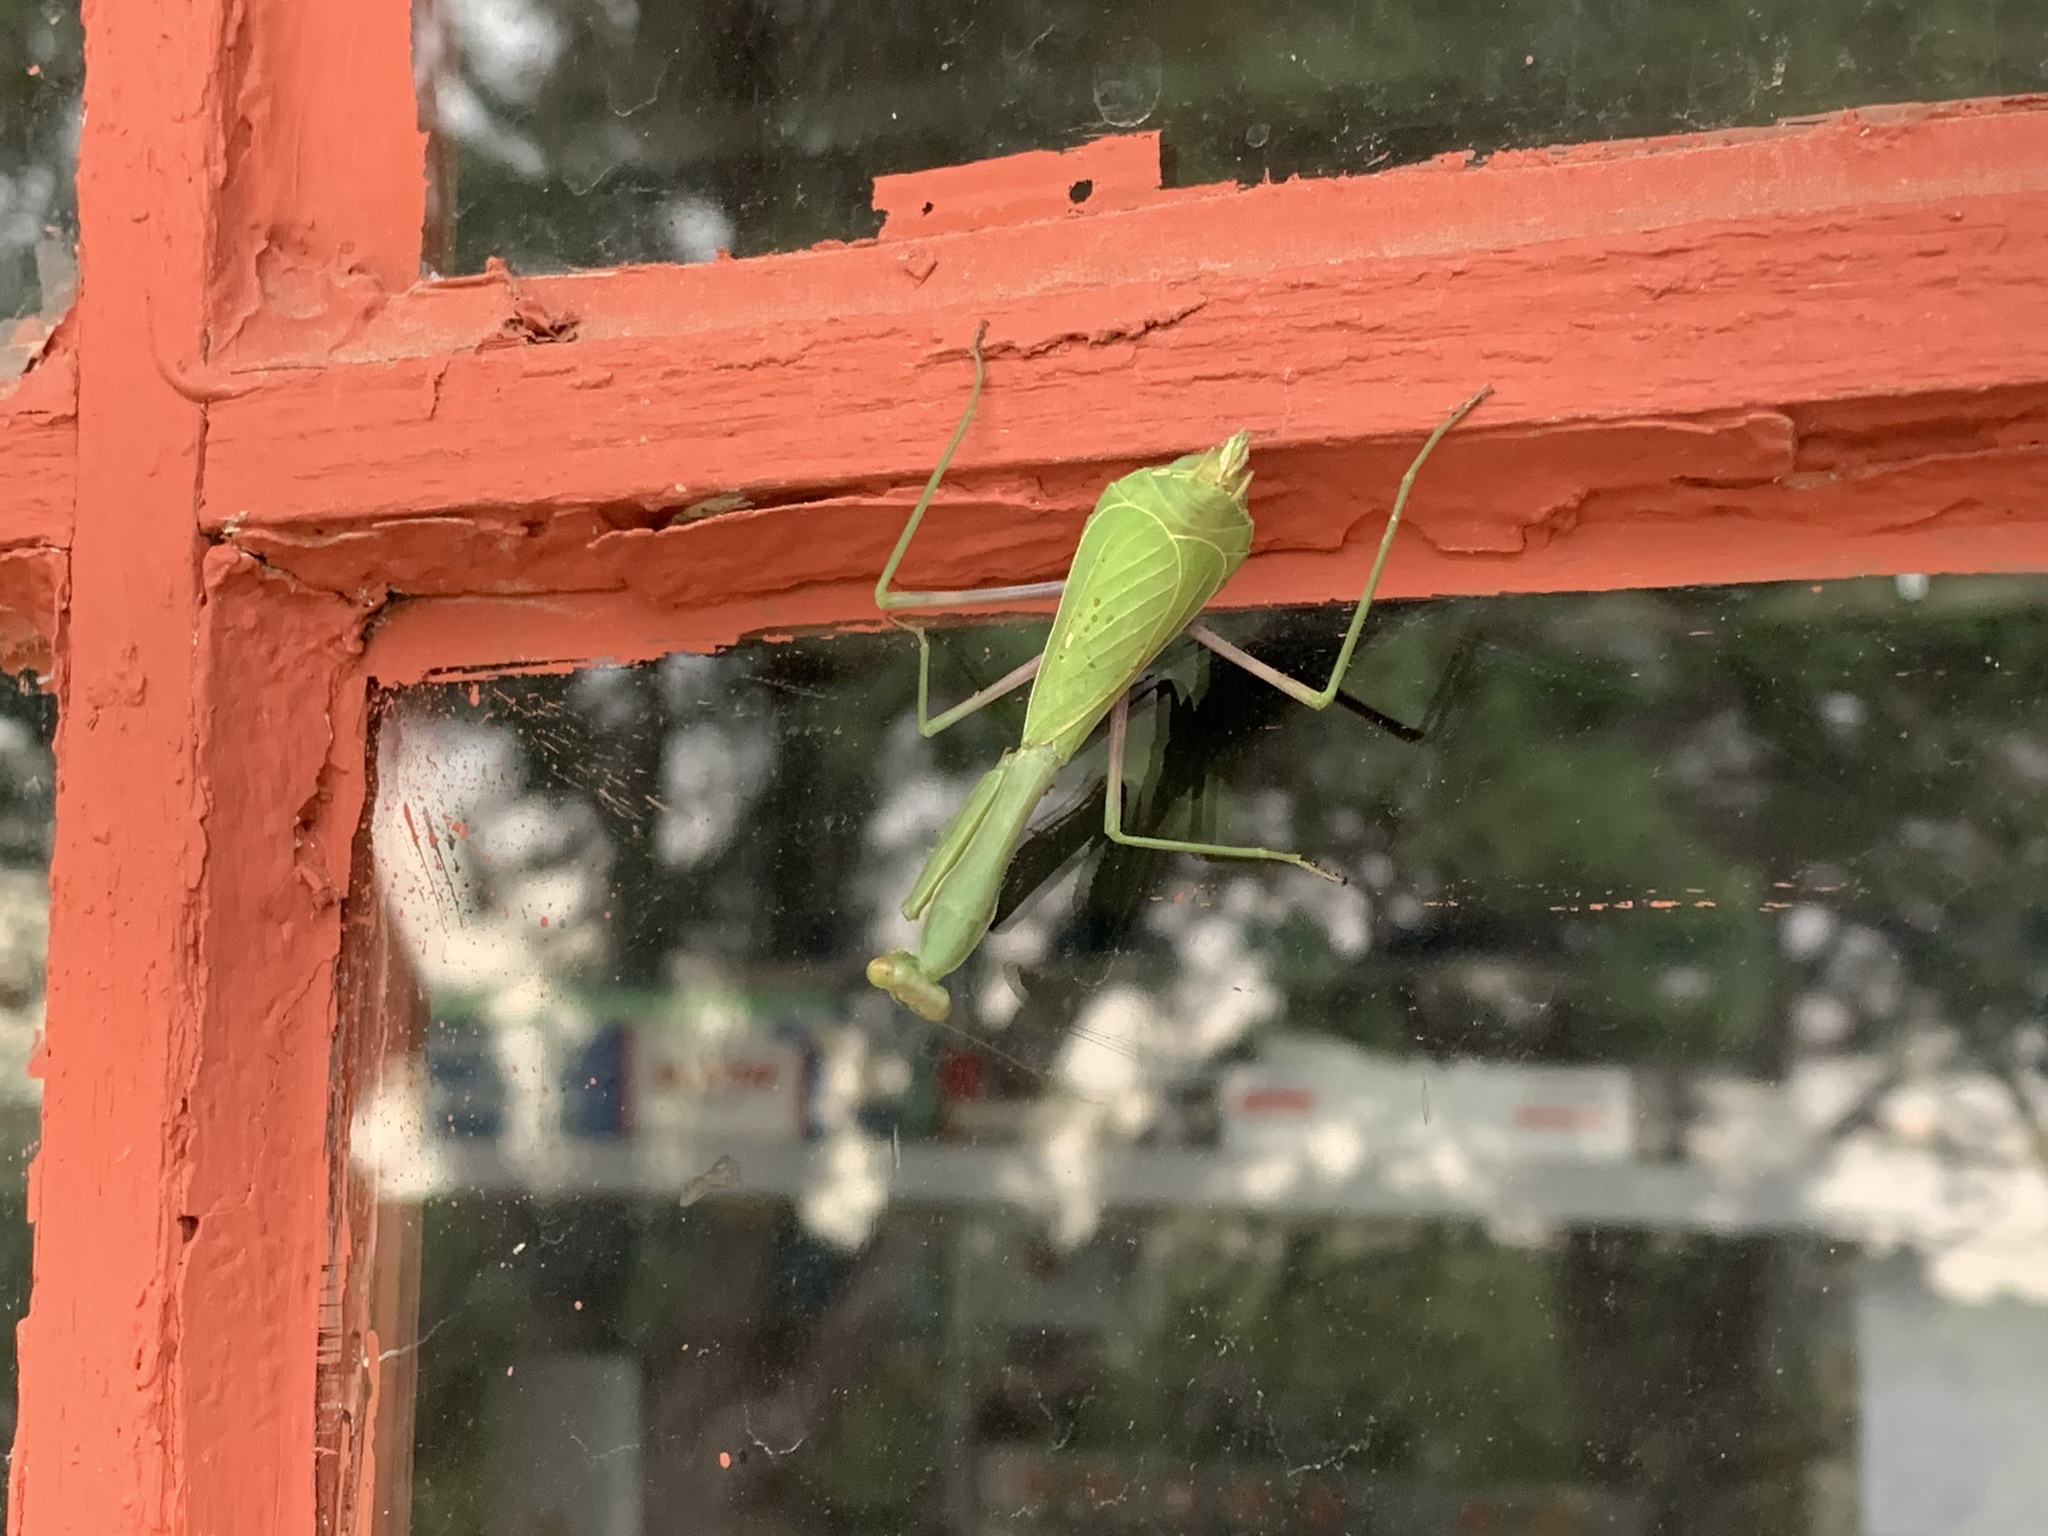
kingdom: Animalia
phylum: Arthropoda
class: Insecta
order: Mantodea
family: Mantidae
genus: Stagmomantis
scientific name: Stagmomantis limbata
